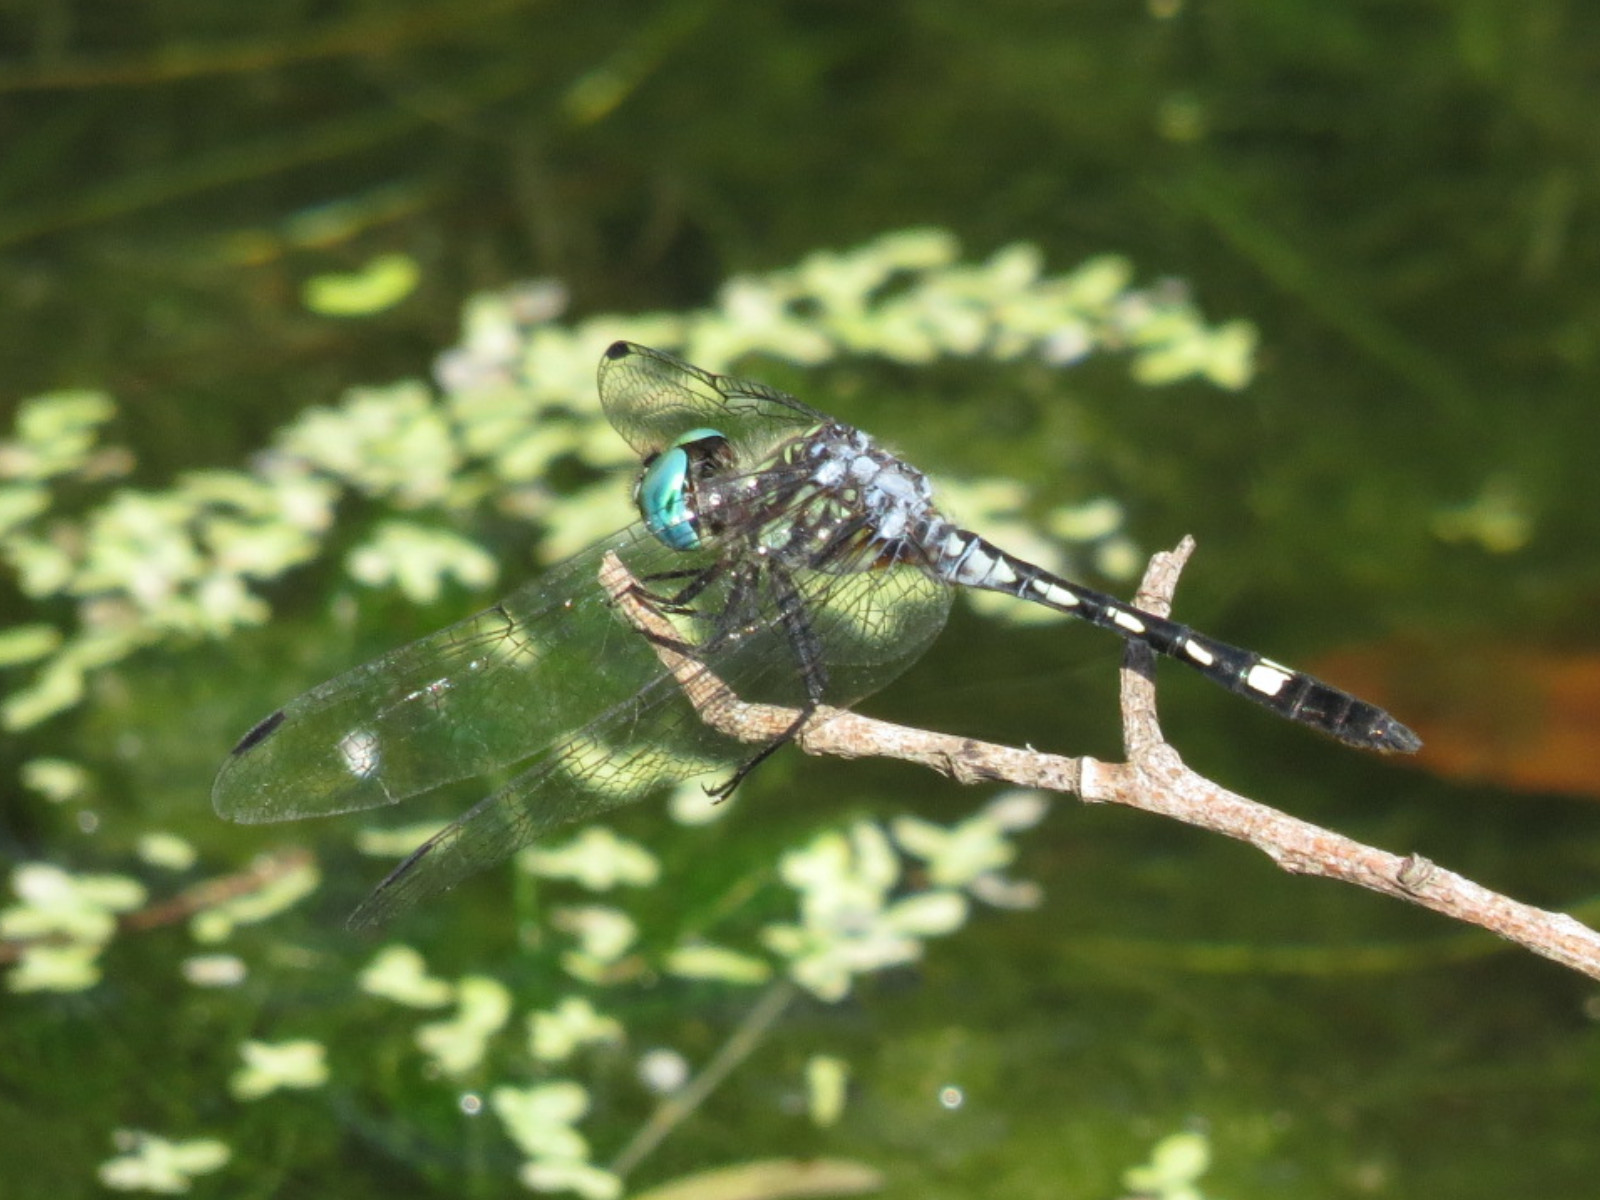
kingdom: Animalia
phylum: Arthropoda
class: Insecta
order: Odonata
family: Libellulidae
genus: Micrathyria
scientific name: Micrathyria hagenii
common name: Thornbush dasher
